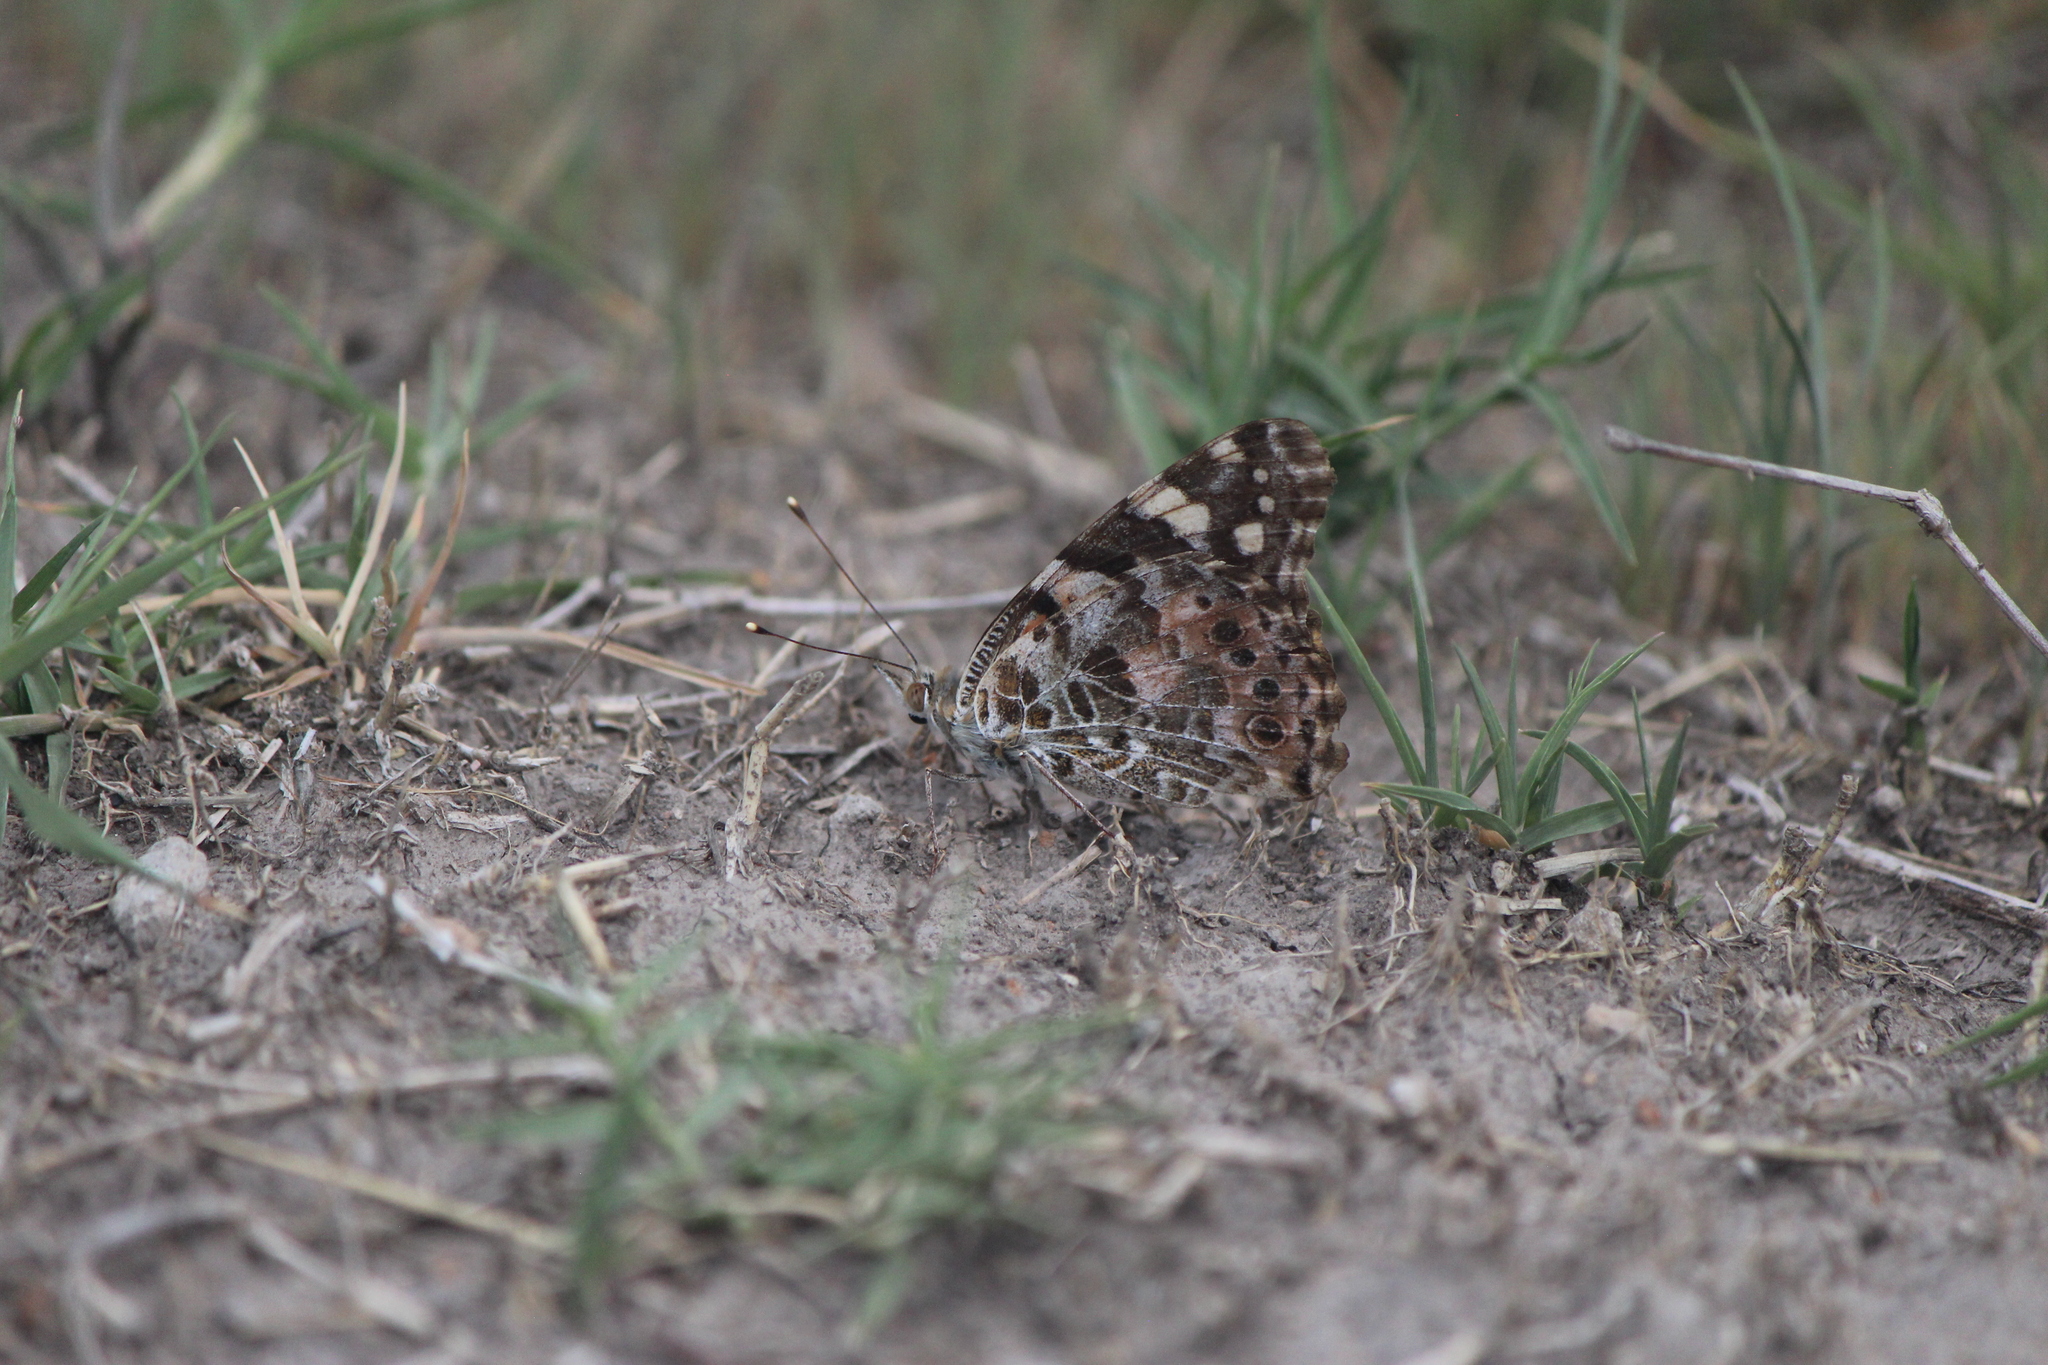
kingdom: Animalia
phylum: Arthropoda
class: Insecta
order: Lepidoptera
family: Nymphalidae
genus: Vanessa
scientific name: Vanessa cardui
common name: Painted lady
